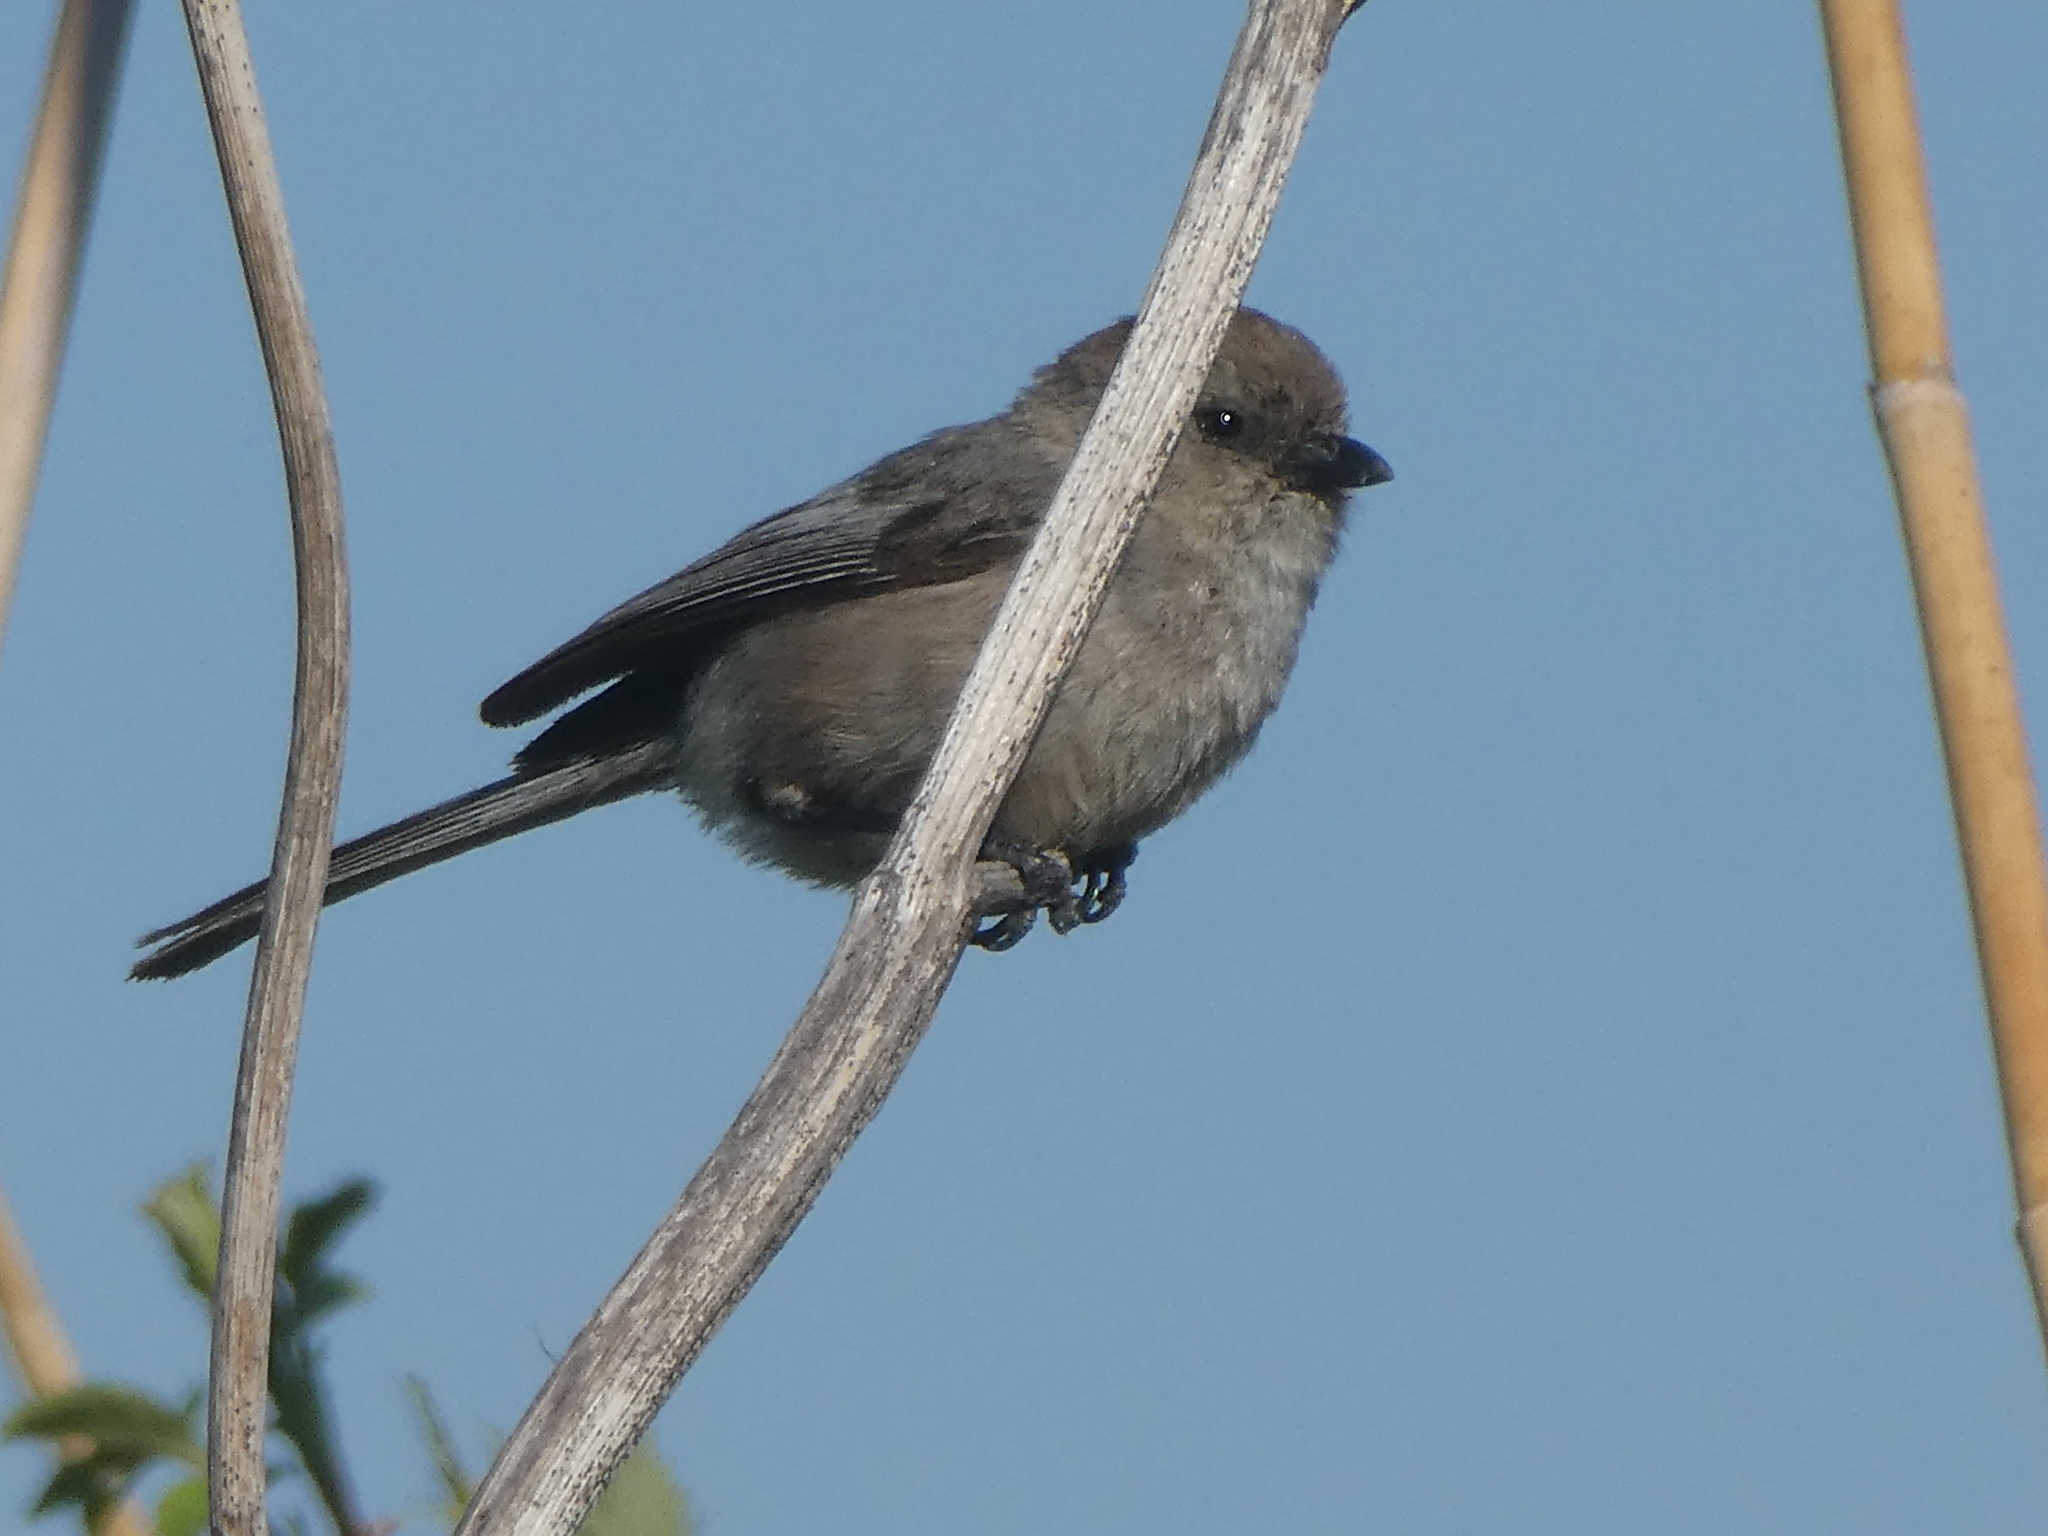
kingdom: Animalia
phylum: Chordata
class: Aves
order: Passeriformes
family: Aegithalidae
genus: Psaltriparus
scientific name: Psaltriparus minimus
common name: American bushtit
